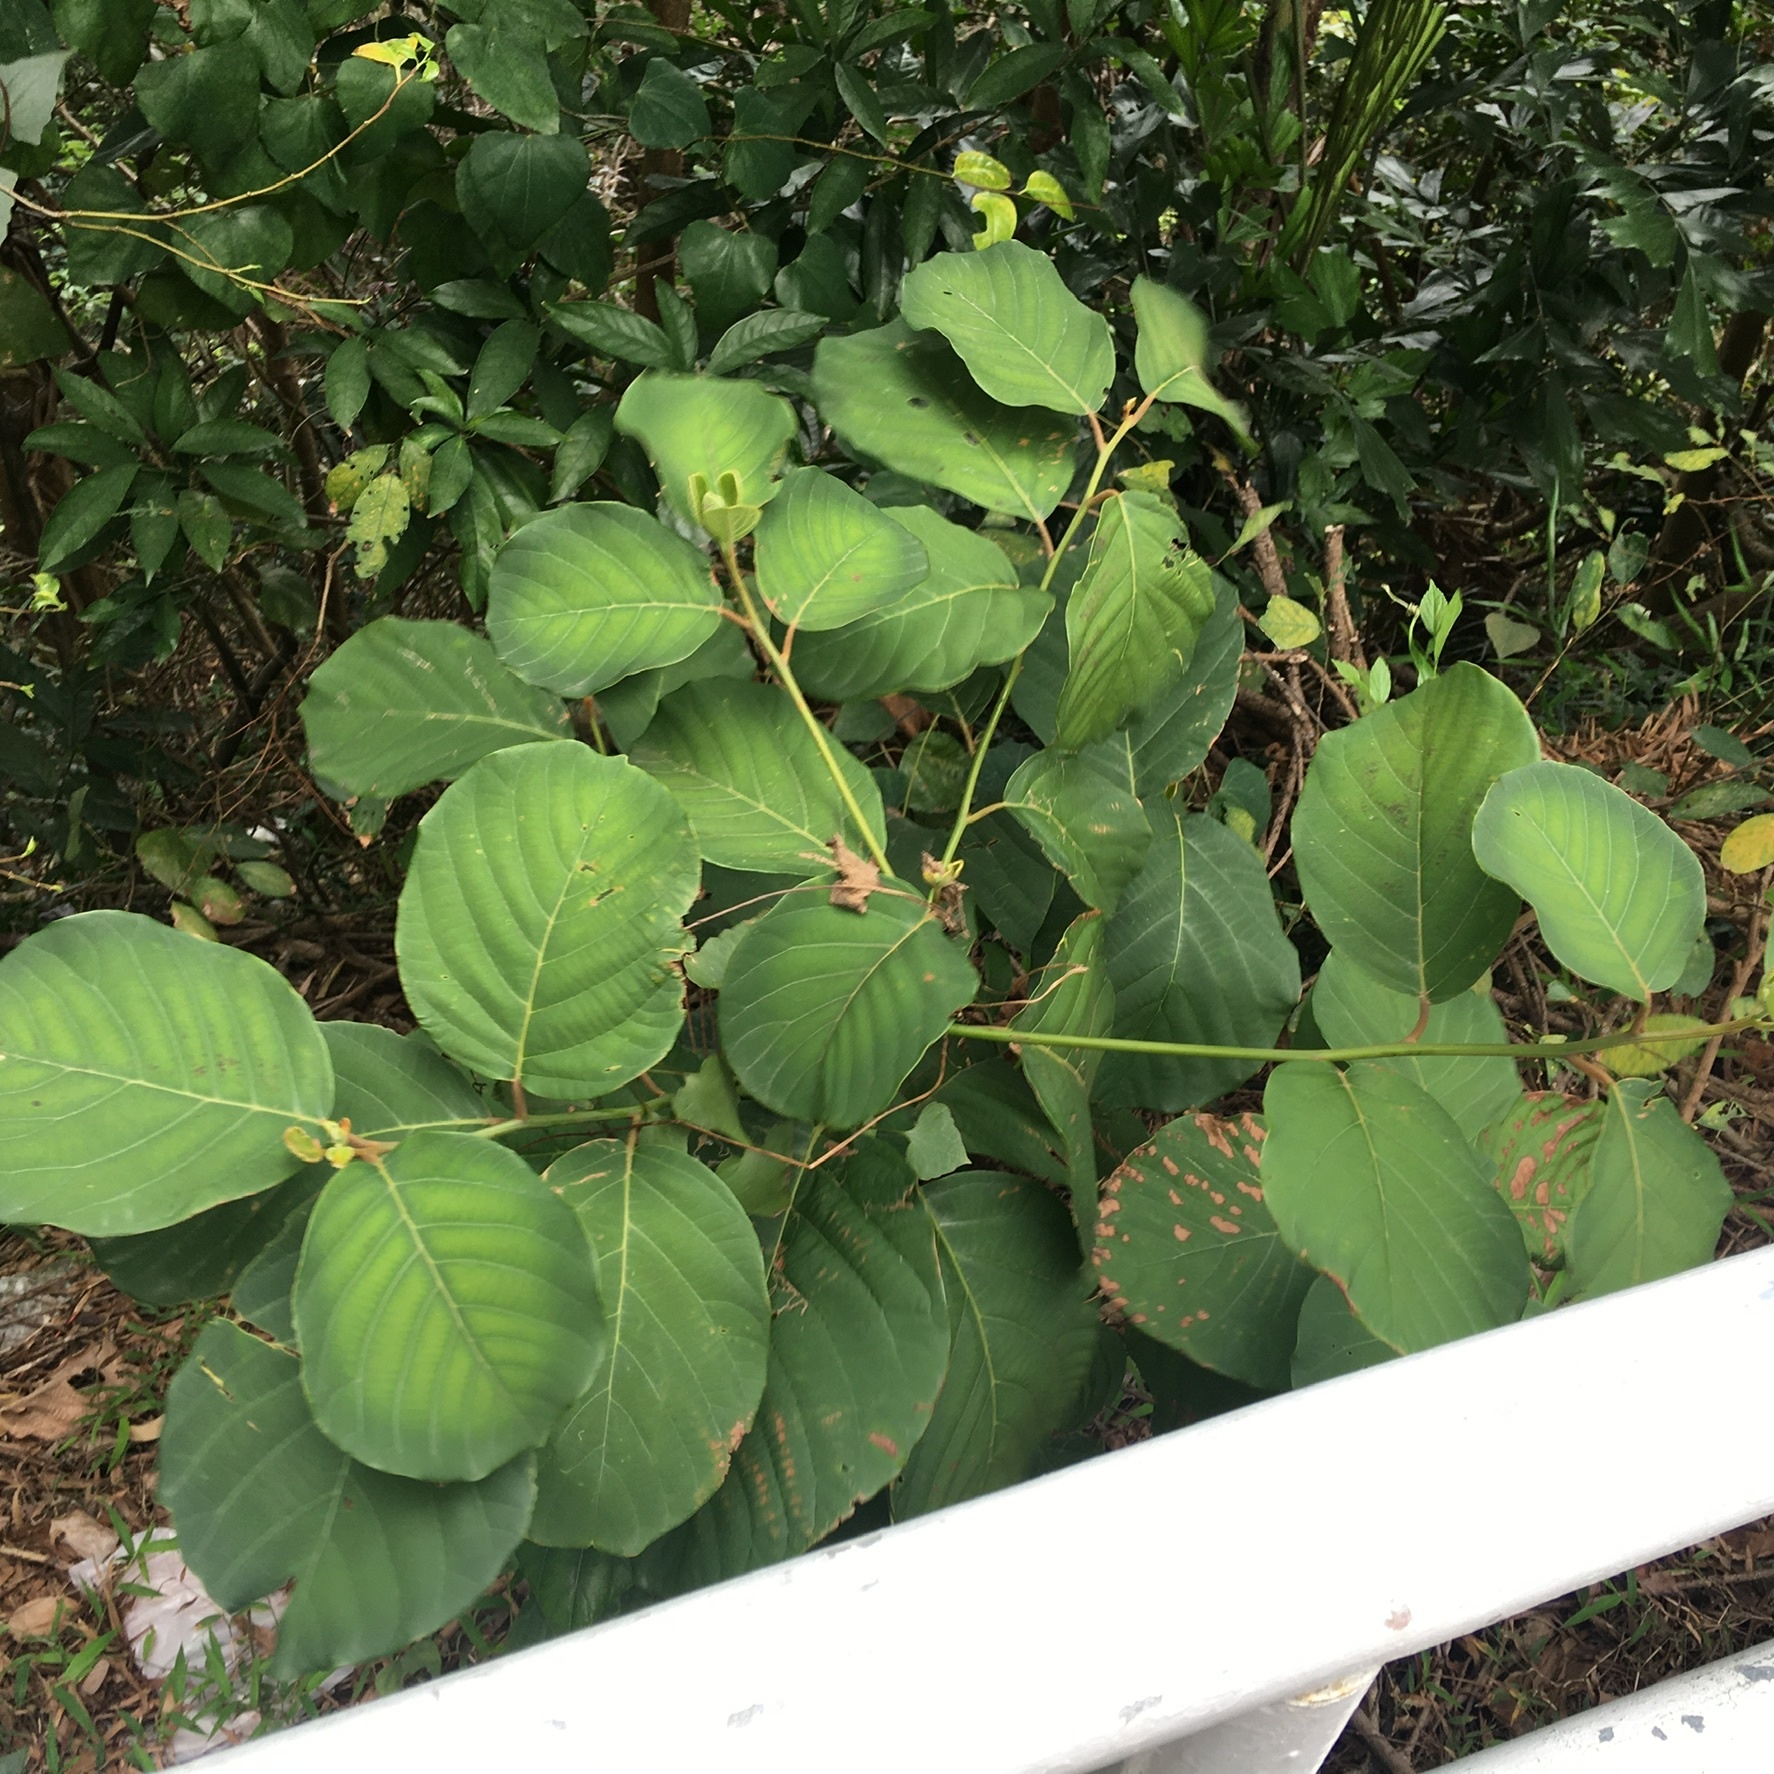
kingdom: Plantae
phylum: Tracheophyta
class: Magnoliopsida
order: Laurales
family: Lauraceae
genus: Litsea
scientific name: Litsea monopetala
